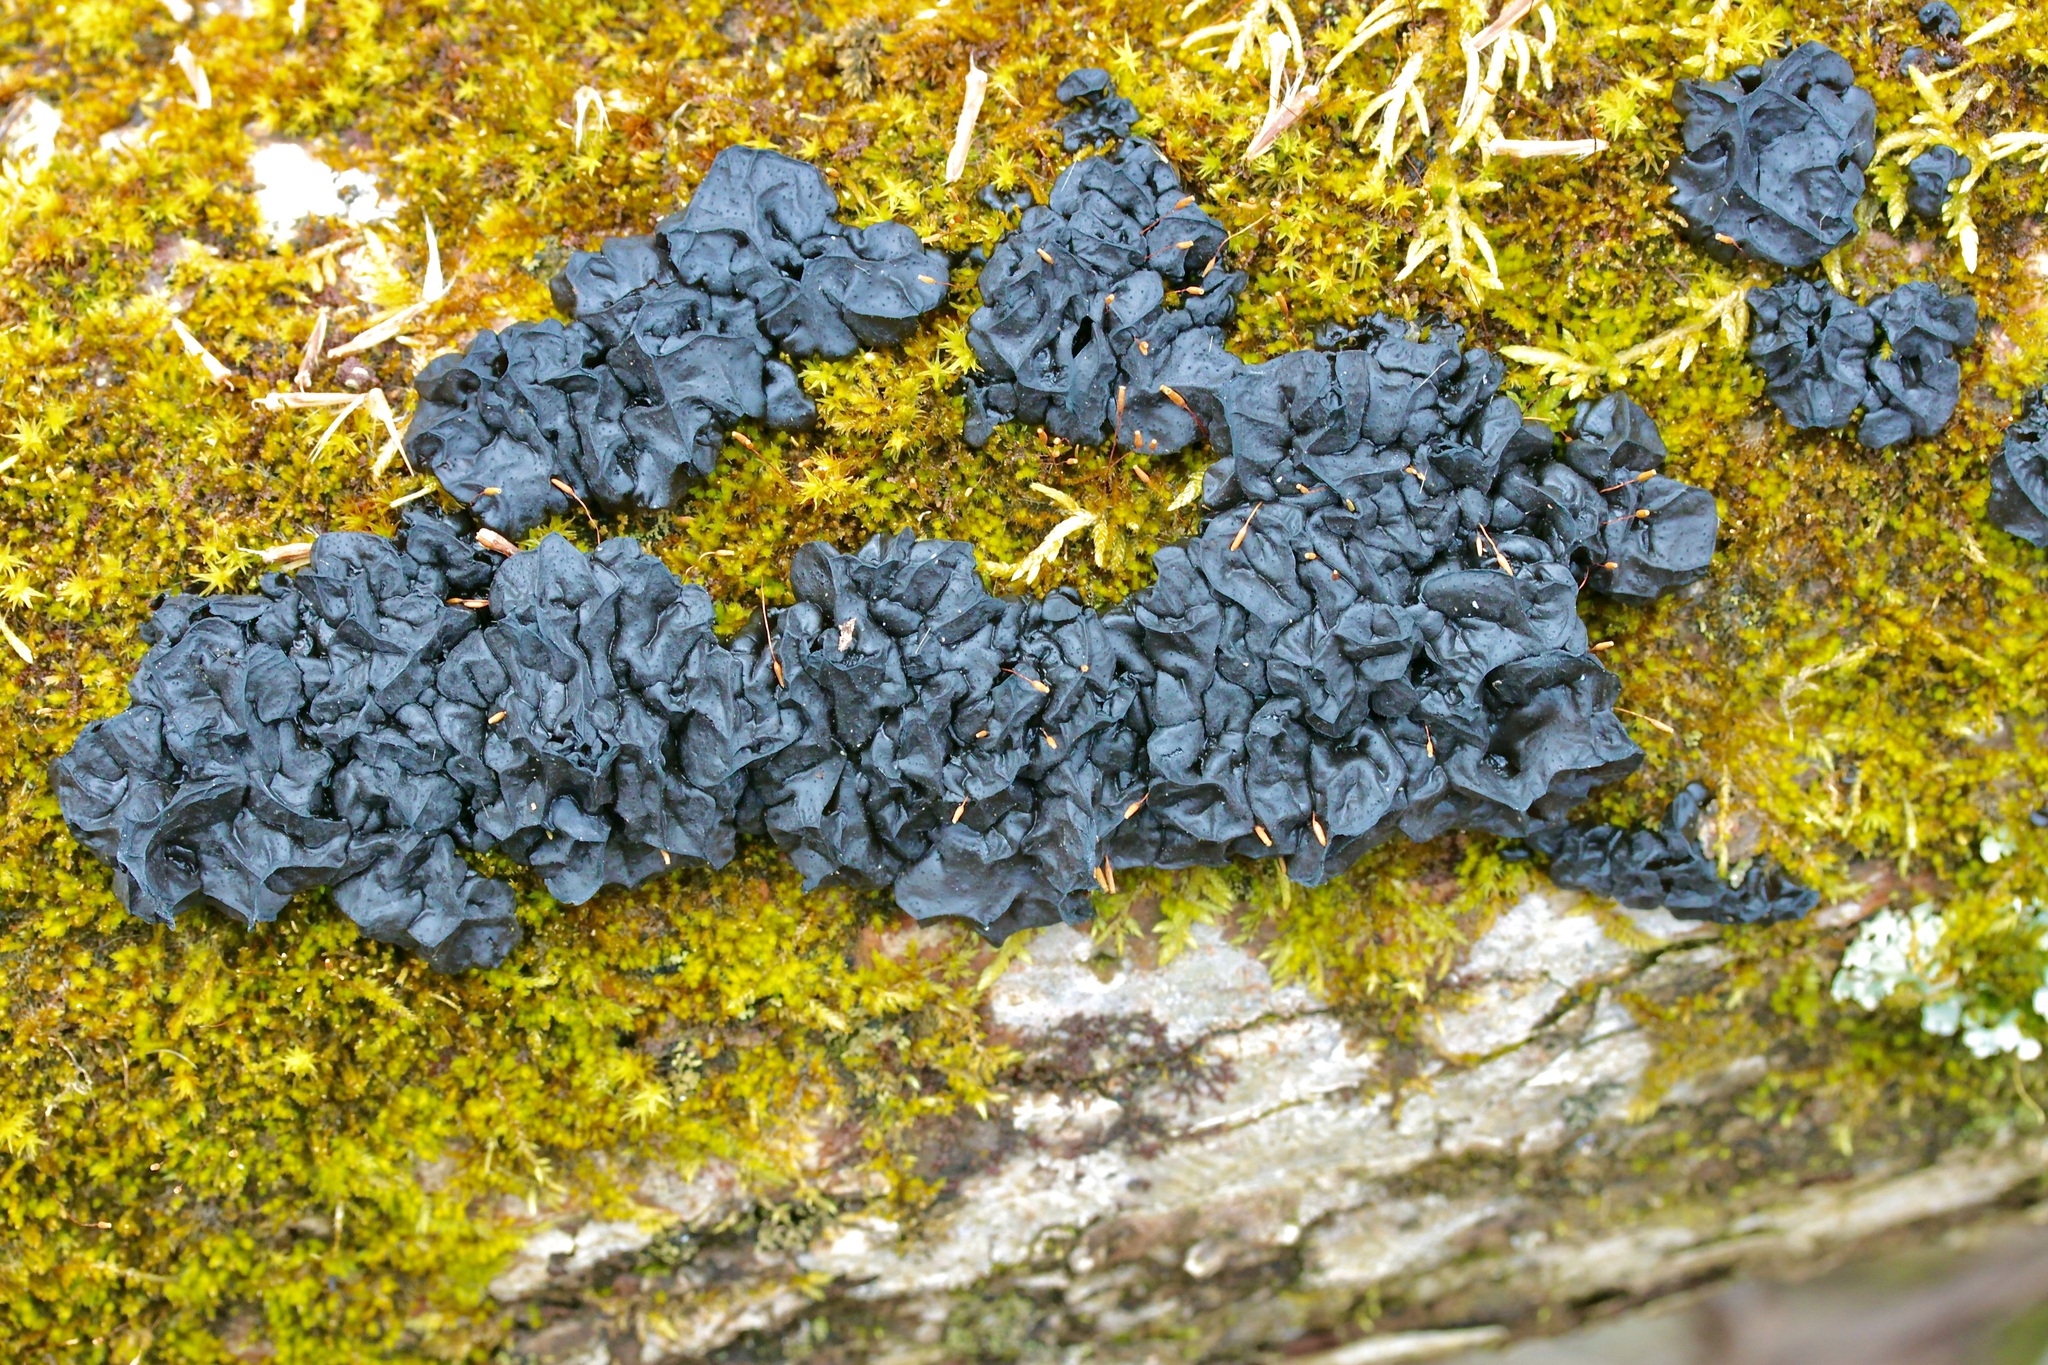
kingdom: Fungi
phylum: Basidiomycota
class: Agaricomycetes
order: Auriculariales
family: Auriculariaceae
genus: Exidia
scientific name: Exidia nigricans
